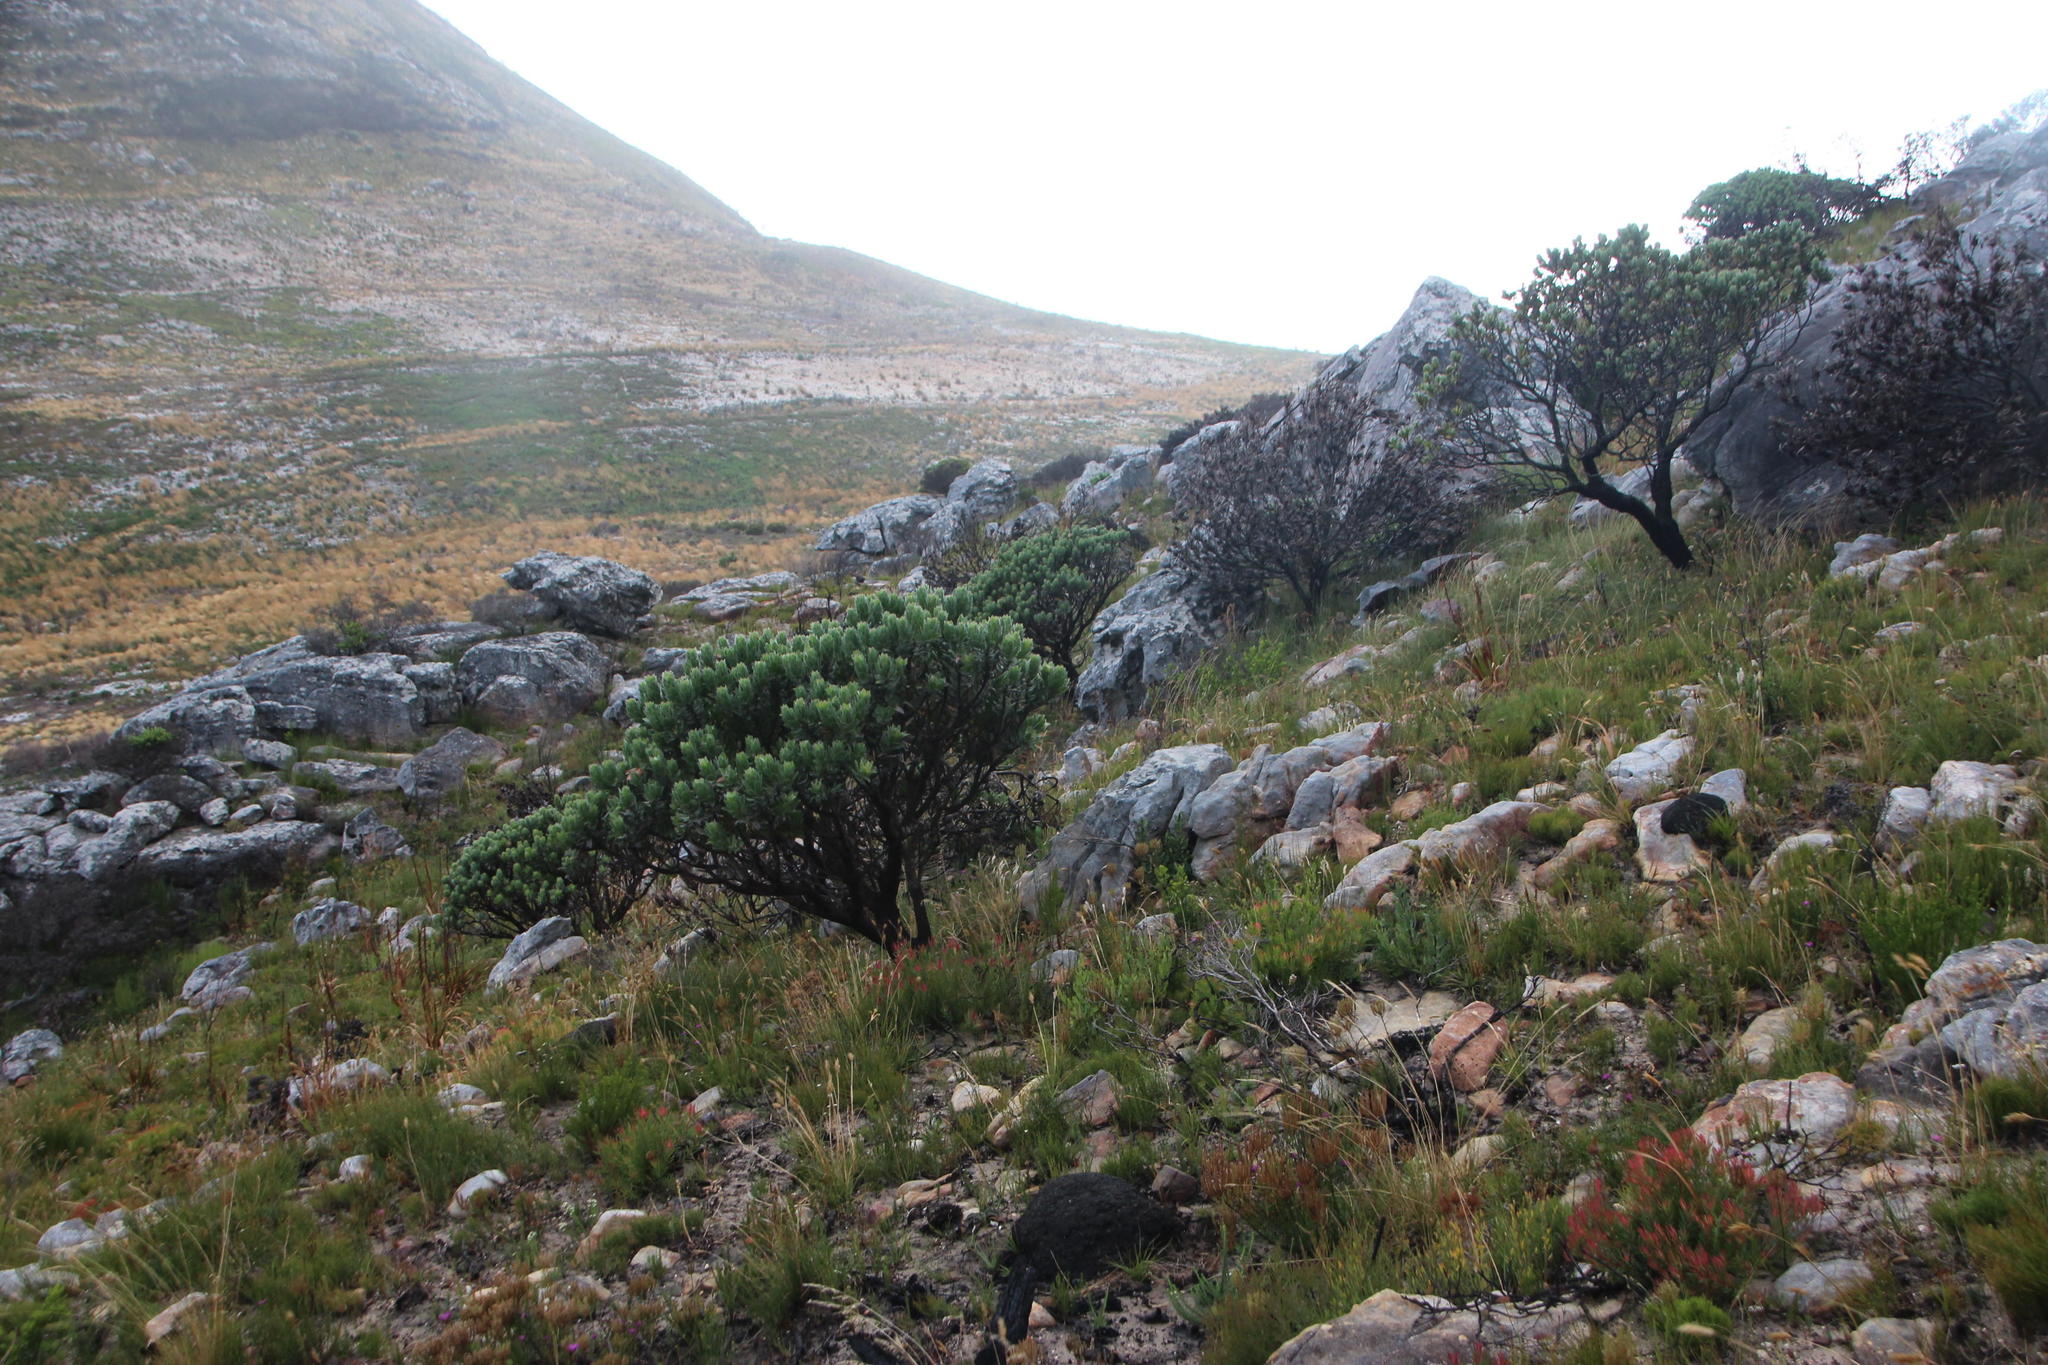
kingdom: Plantae
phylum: Tracheophyta
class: Magnoliopsida
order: Proteales
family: Proteaceae
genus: Leucospermum
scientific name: Leucospermum conocarpodendron
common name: Tree pincushion
